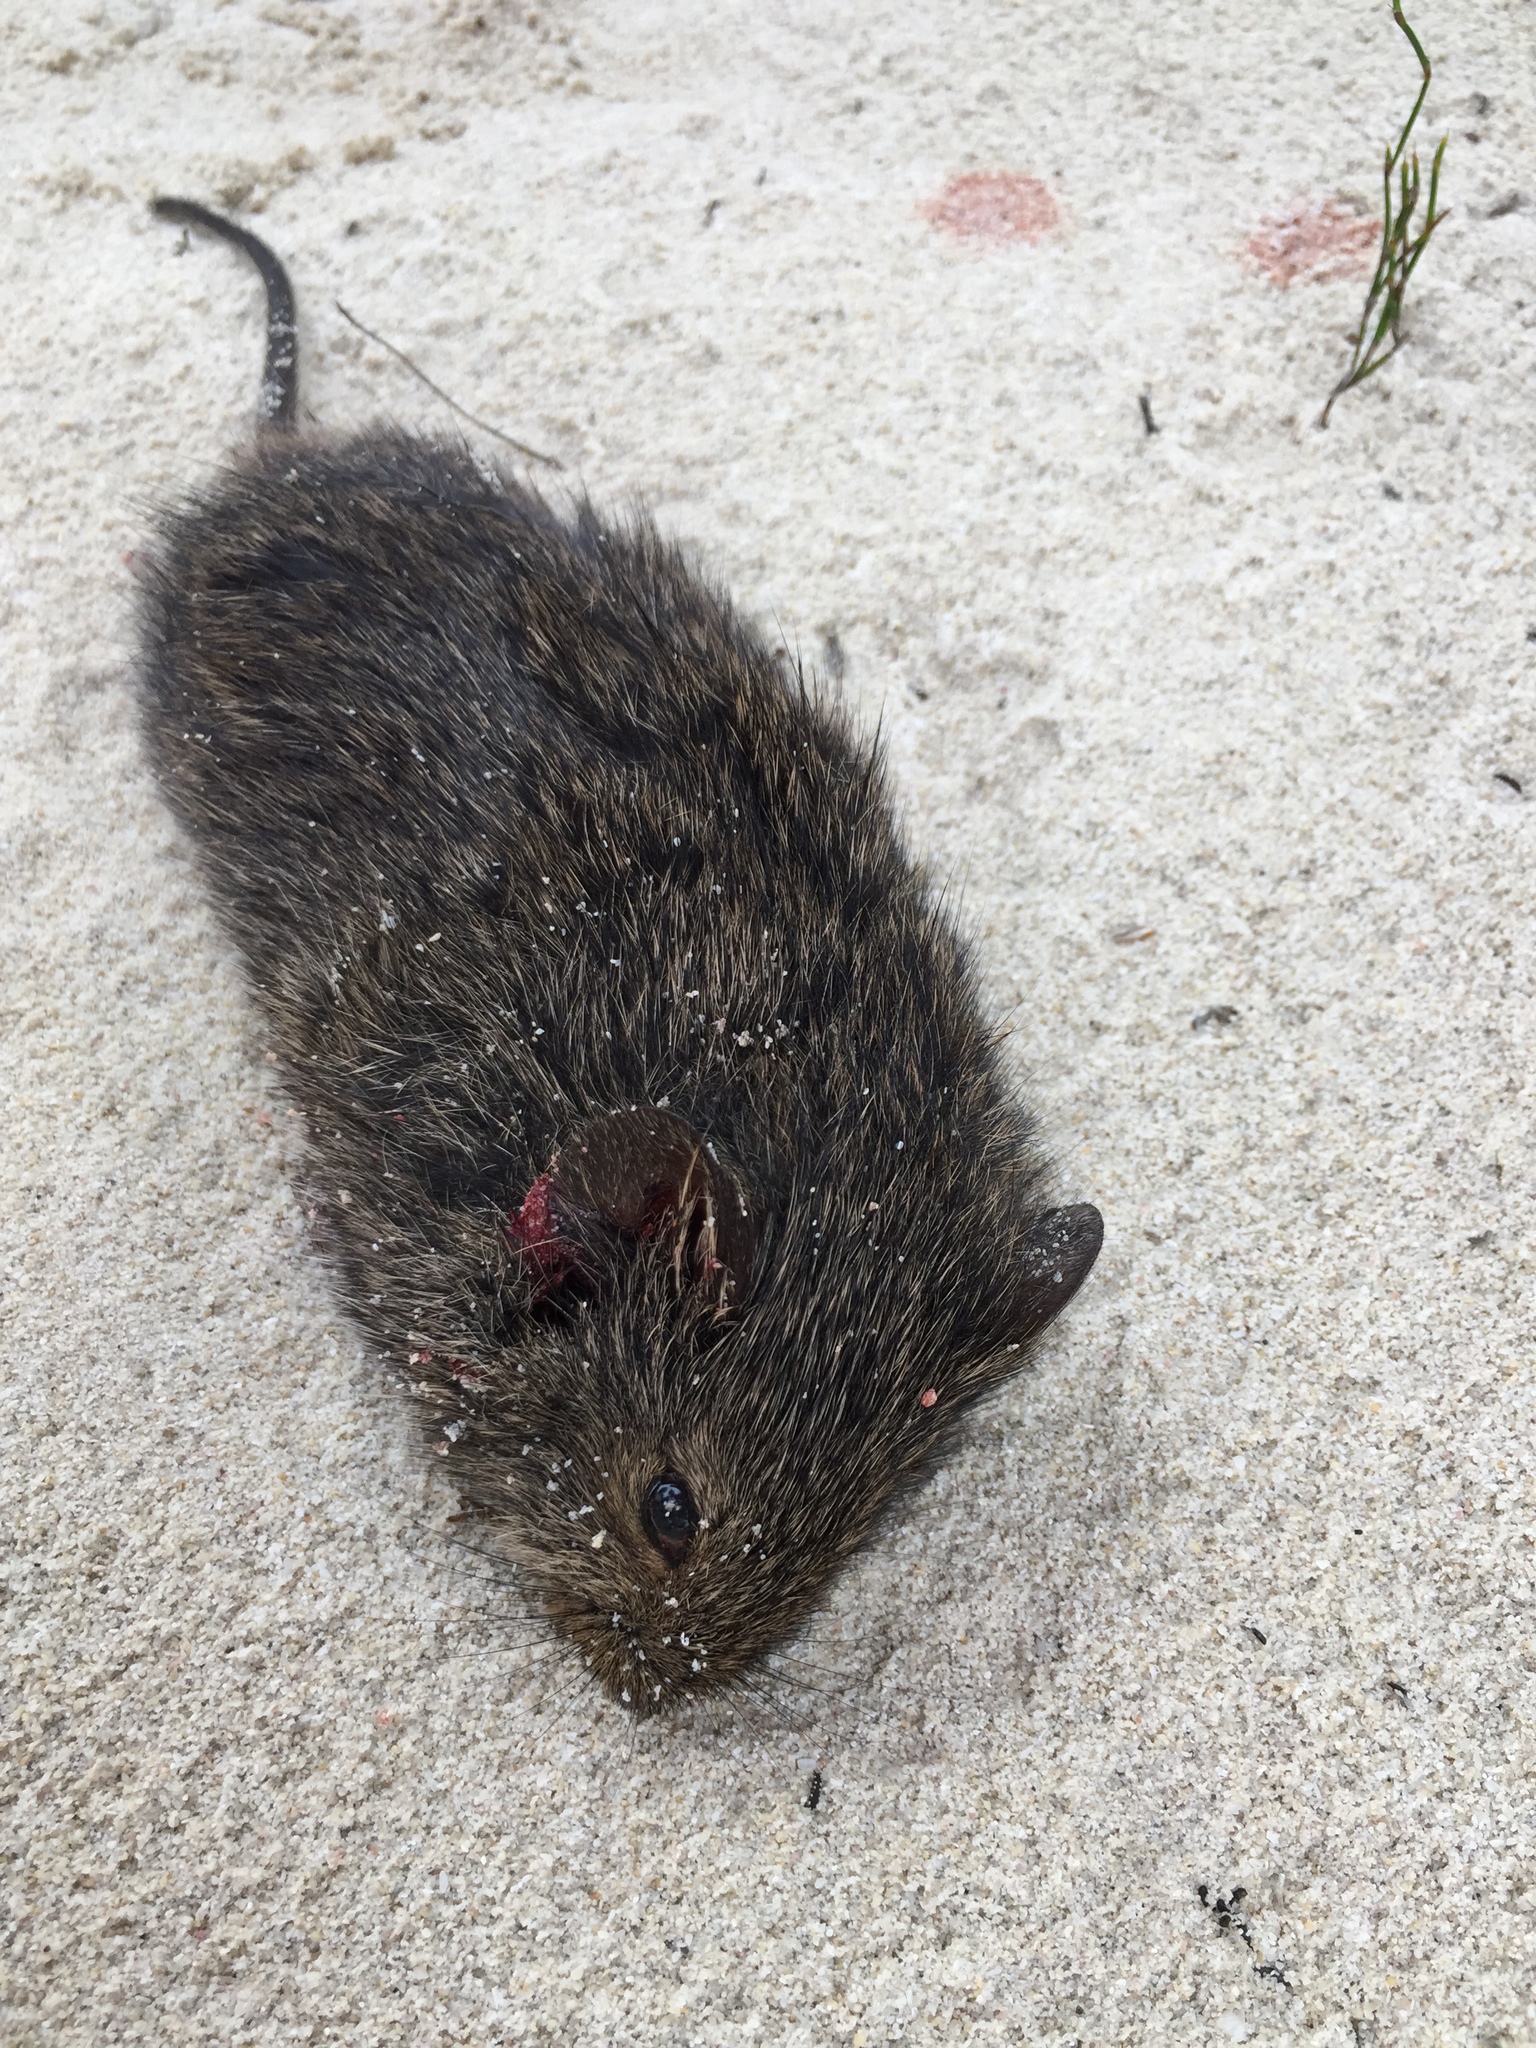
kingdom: Animalia
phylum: Chordata
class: Mammalia
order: Rodentia
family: Muridae
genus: Otomys
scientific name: Otomys irroratus
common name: Southern african vlei rat
